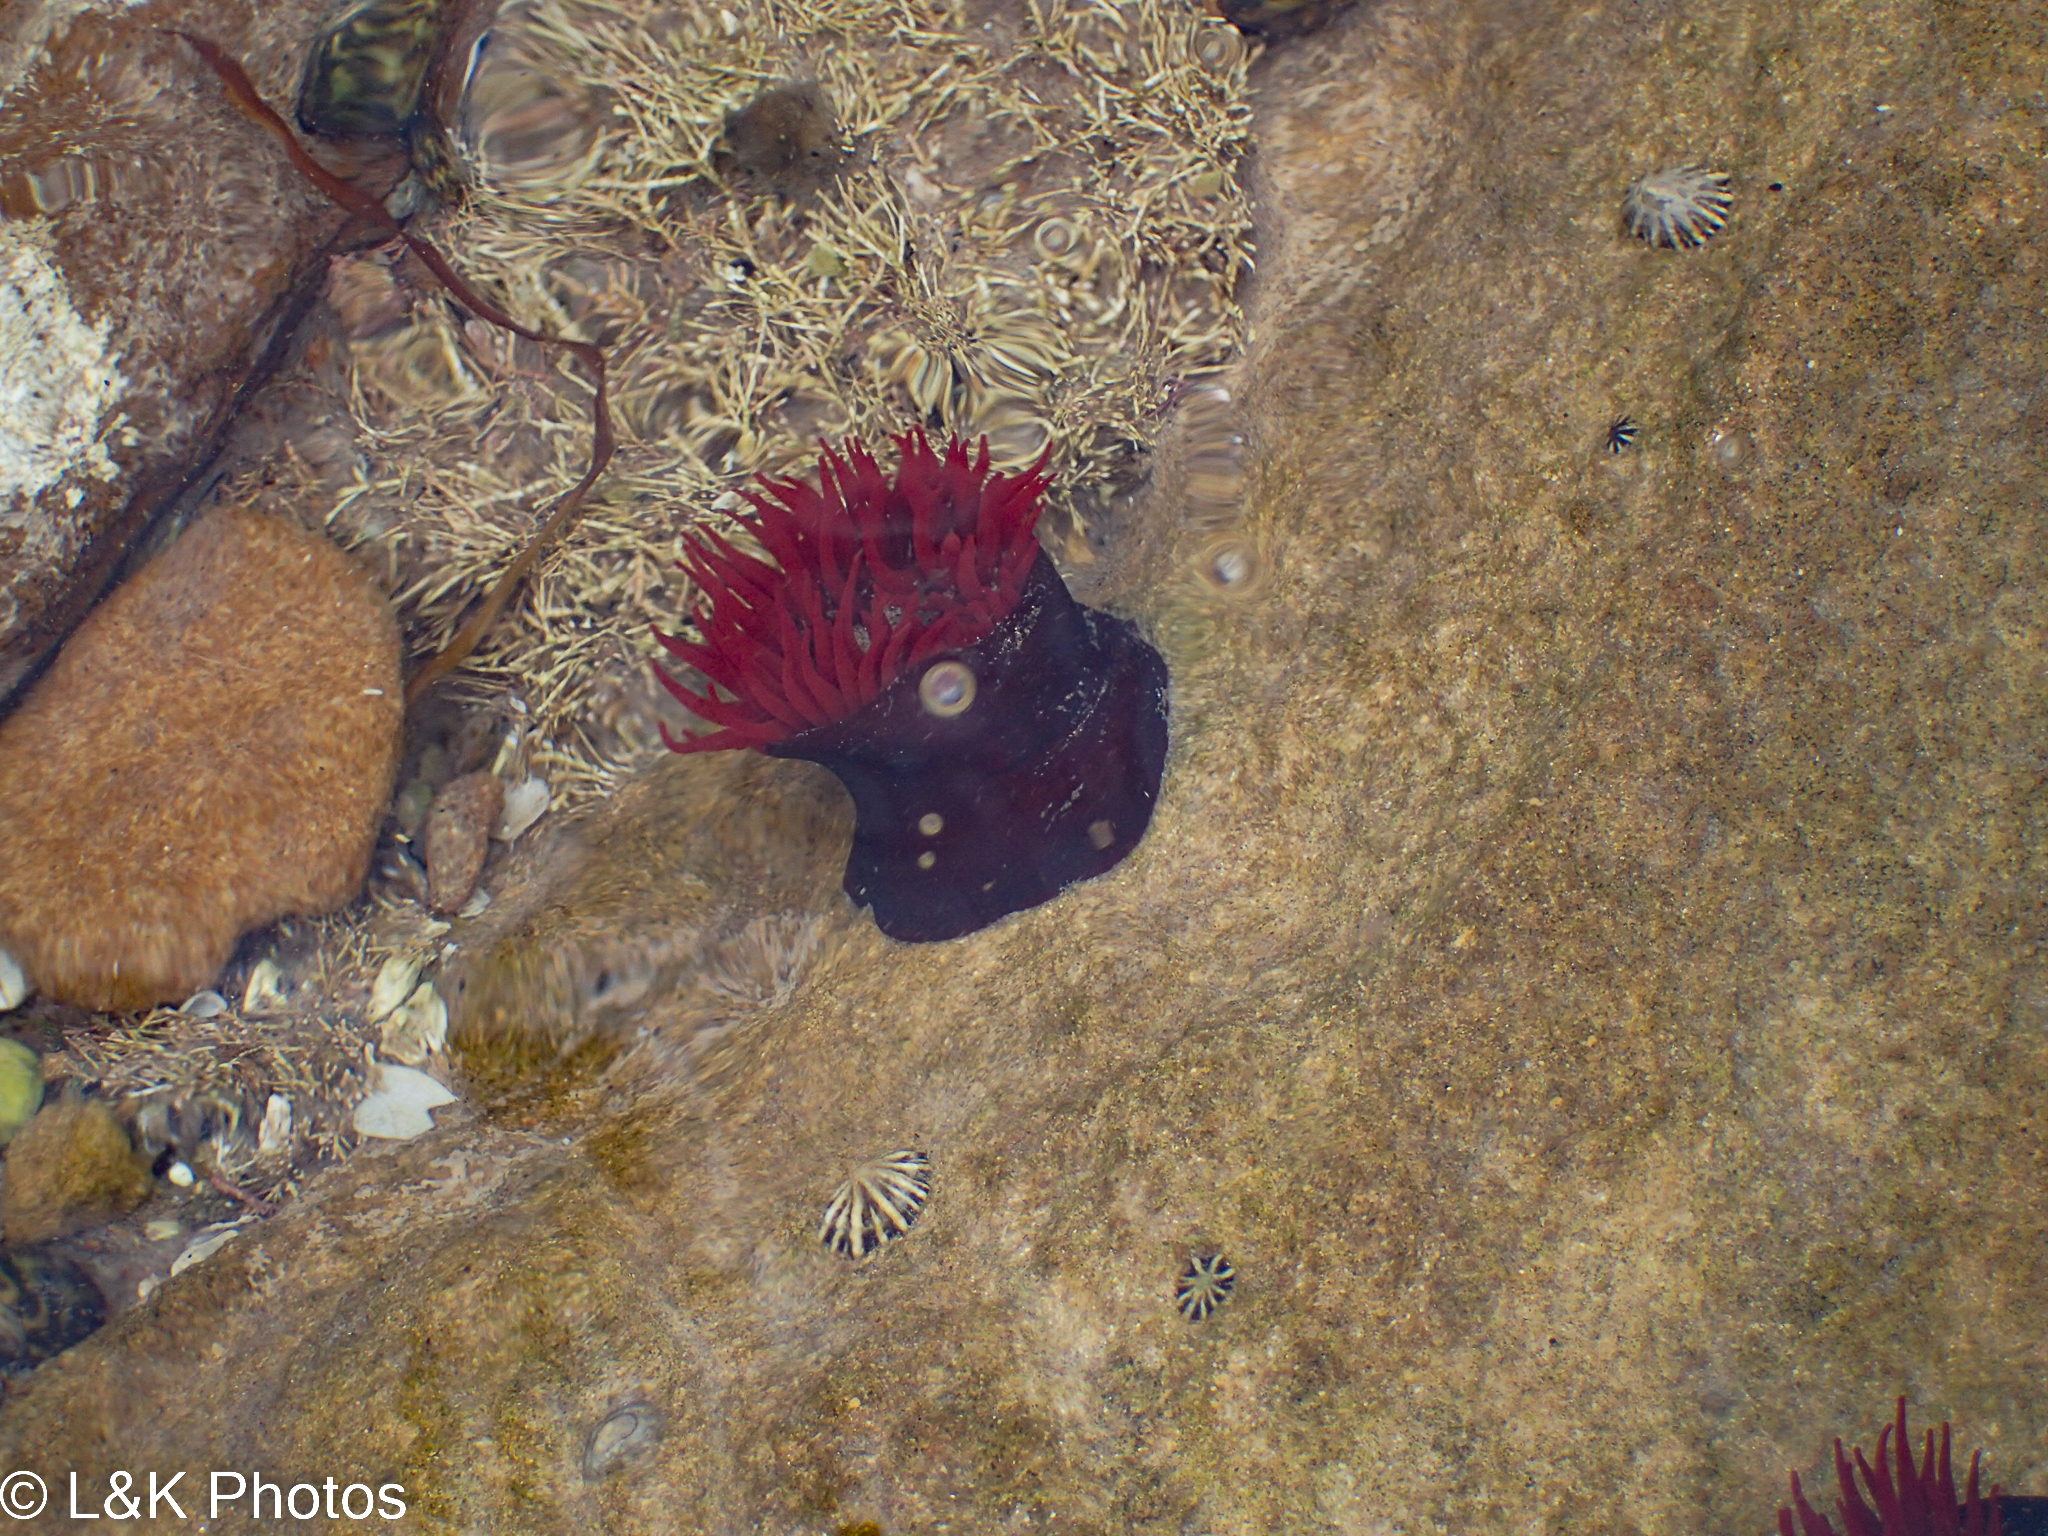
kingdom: Animalia
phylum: Cnidaria
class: Anthozoa
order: Actiniaria
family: Actiniidae
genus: Actinia
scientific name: Actinia tenebrosa
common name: Waratah anemone
